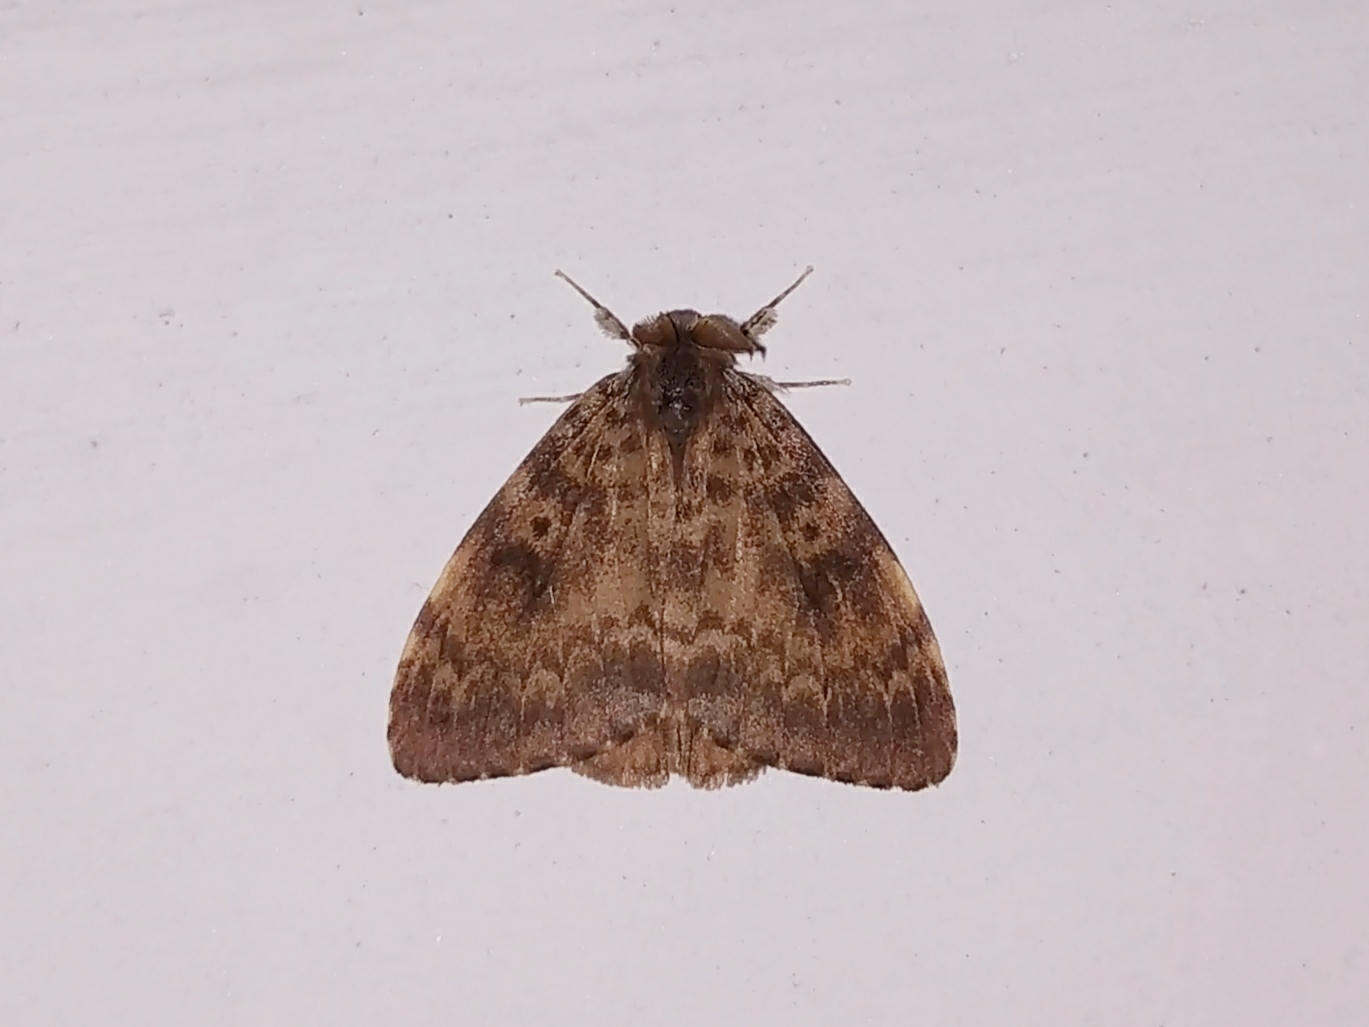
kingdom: Animalia
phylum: Arthropoda
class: Insecta
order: Lepidoptera
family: Erebidae
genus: Lymantria
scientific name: Lymantria ampla
